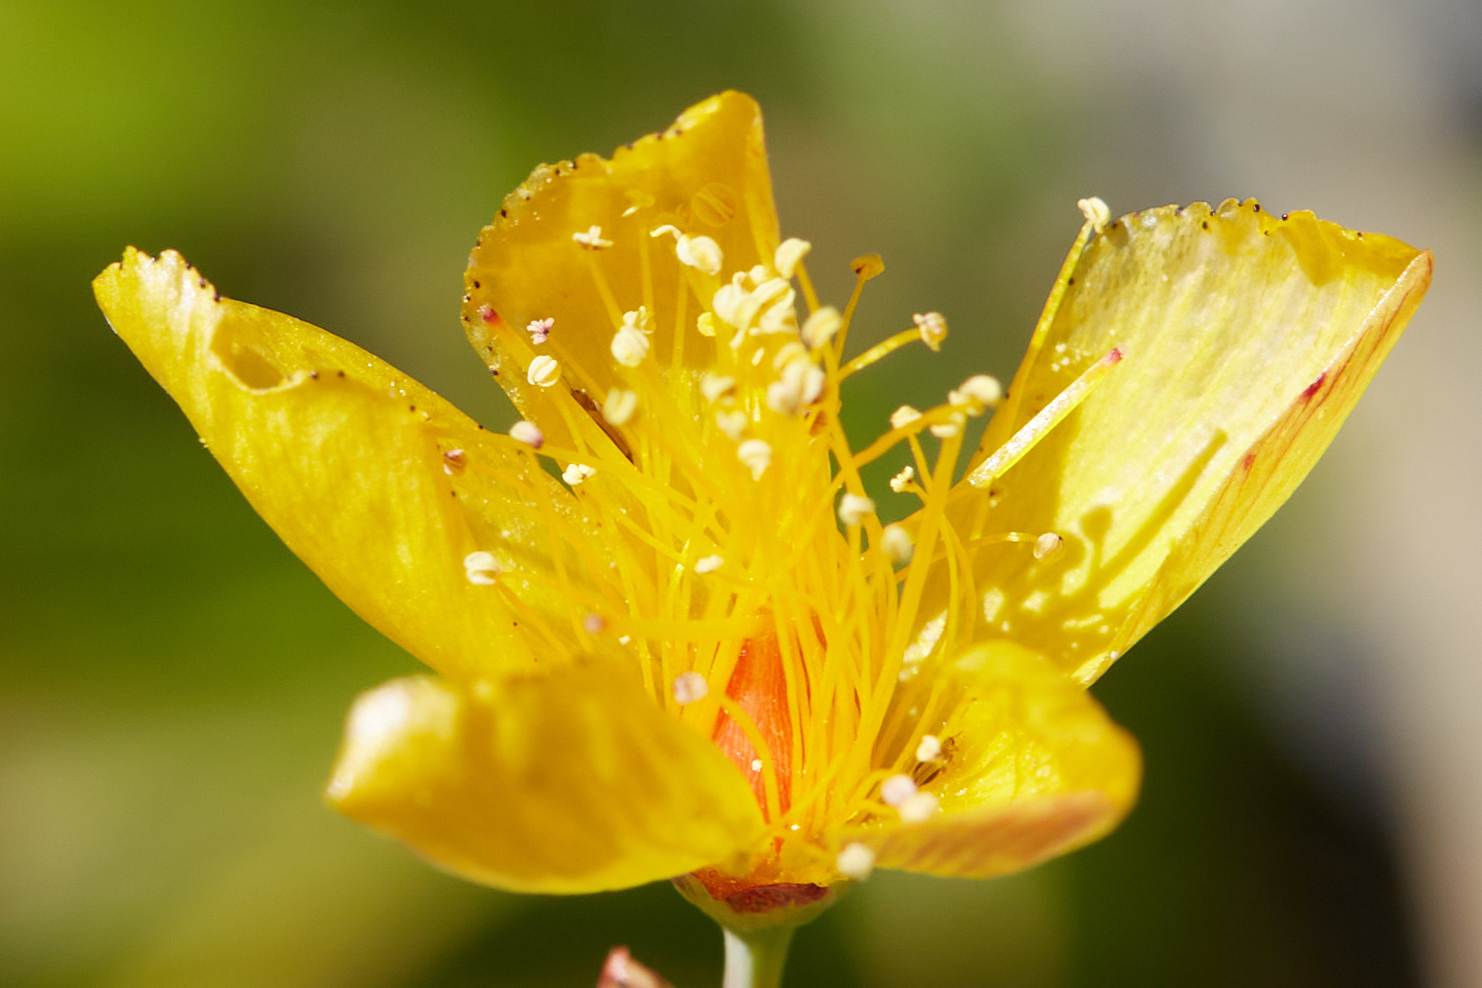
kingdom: Plantae
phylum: Tracheophyta
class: Magnoliopsida
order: Malpighiales
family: Hypericaceae
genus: Hypericum
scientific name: Hypericum scouleri
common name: Scouler's st. john's-wort
